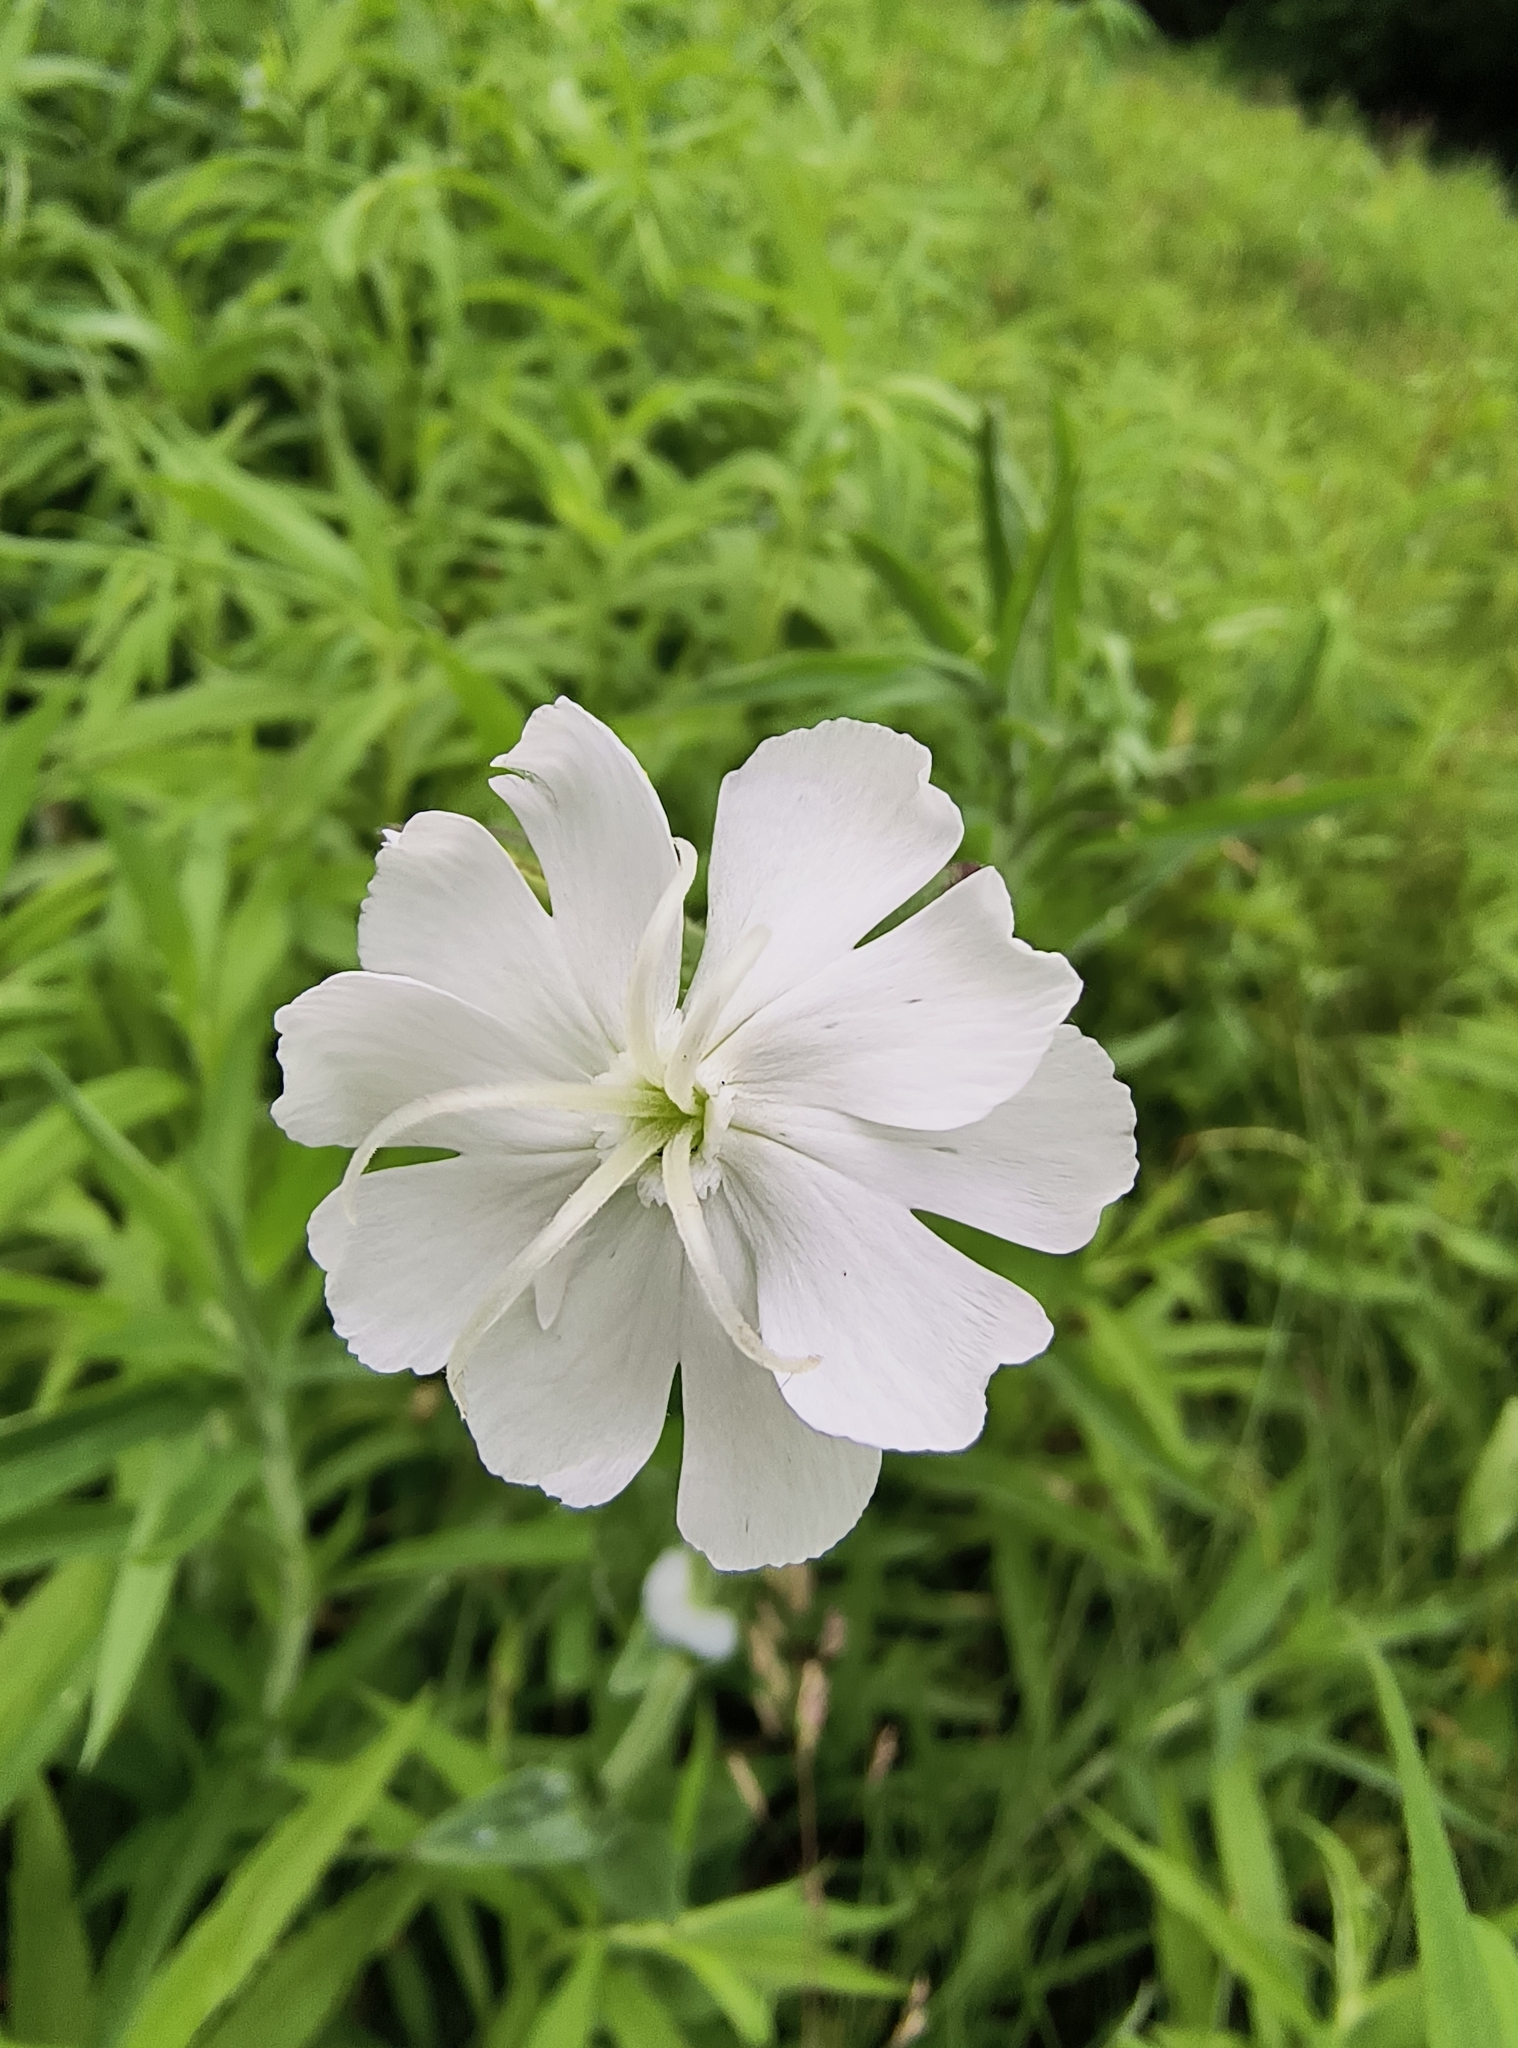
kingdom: Plantae
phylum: Tracheophyta
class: Magnoliopsida
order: Caryophyllales
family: Caryophyllaceae
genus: Silene
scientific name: Silene latifolia
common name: White campion
